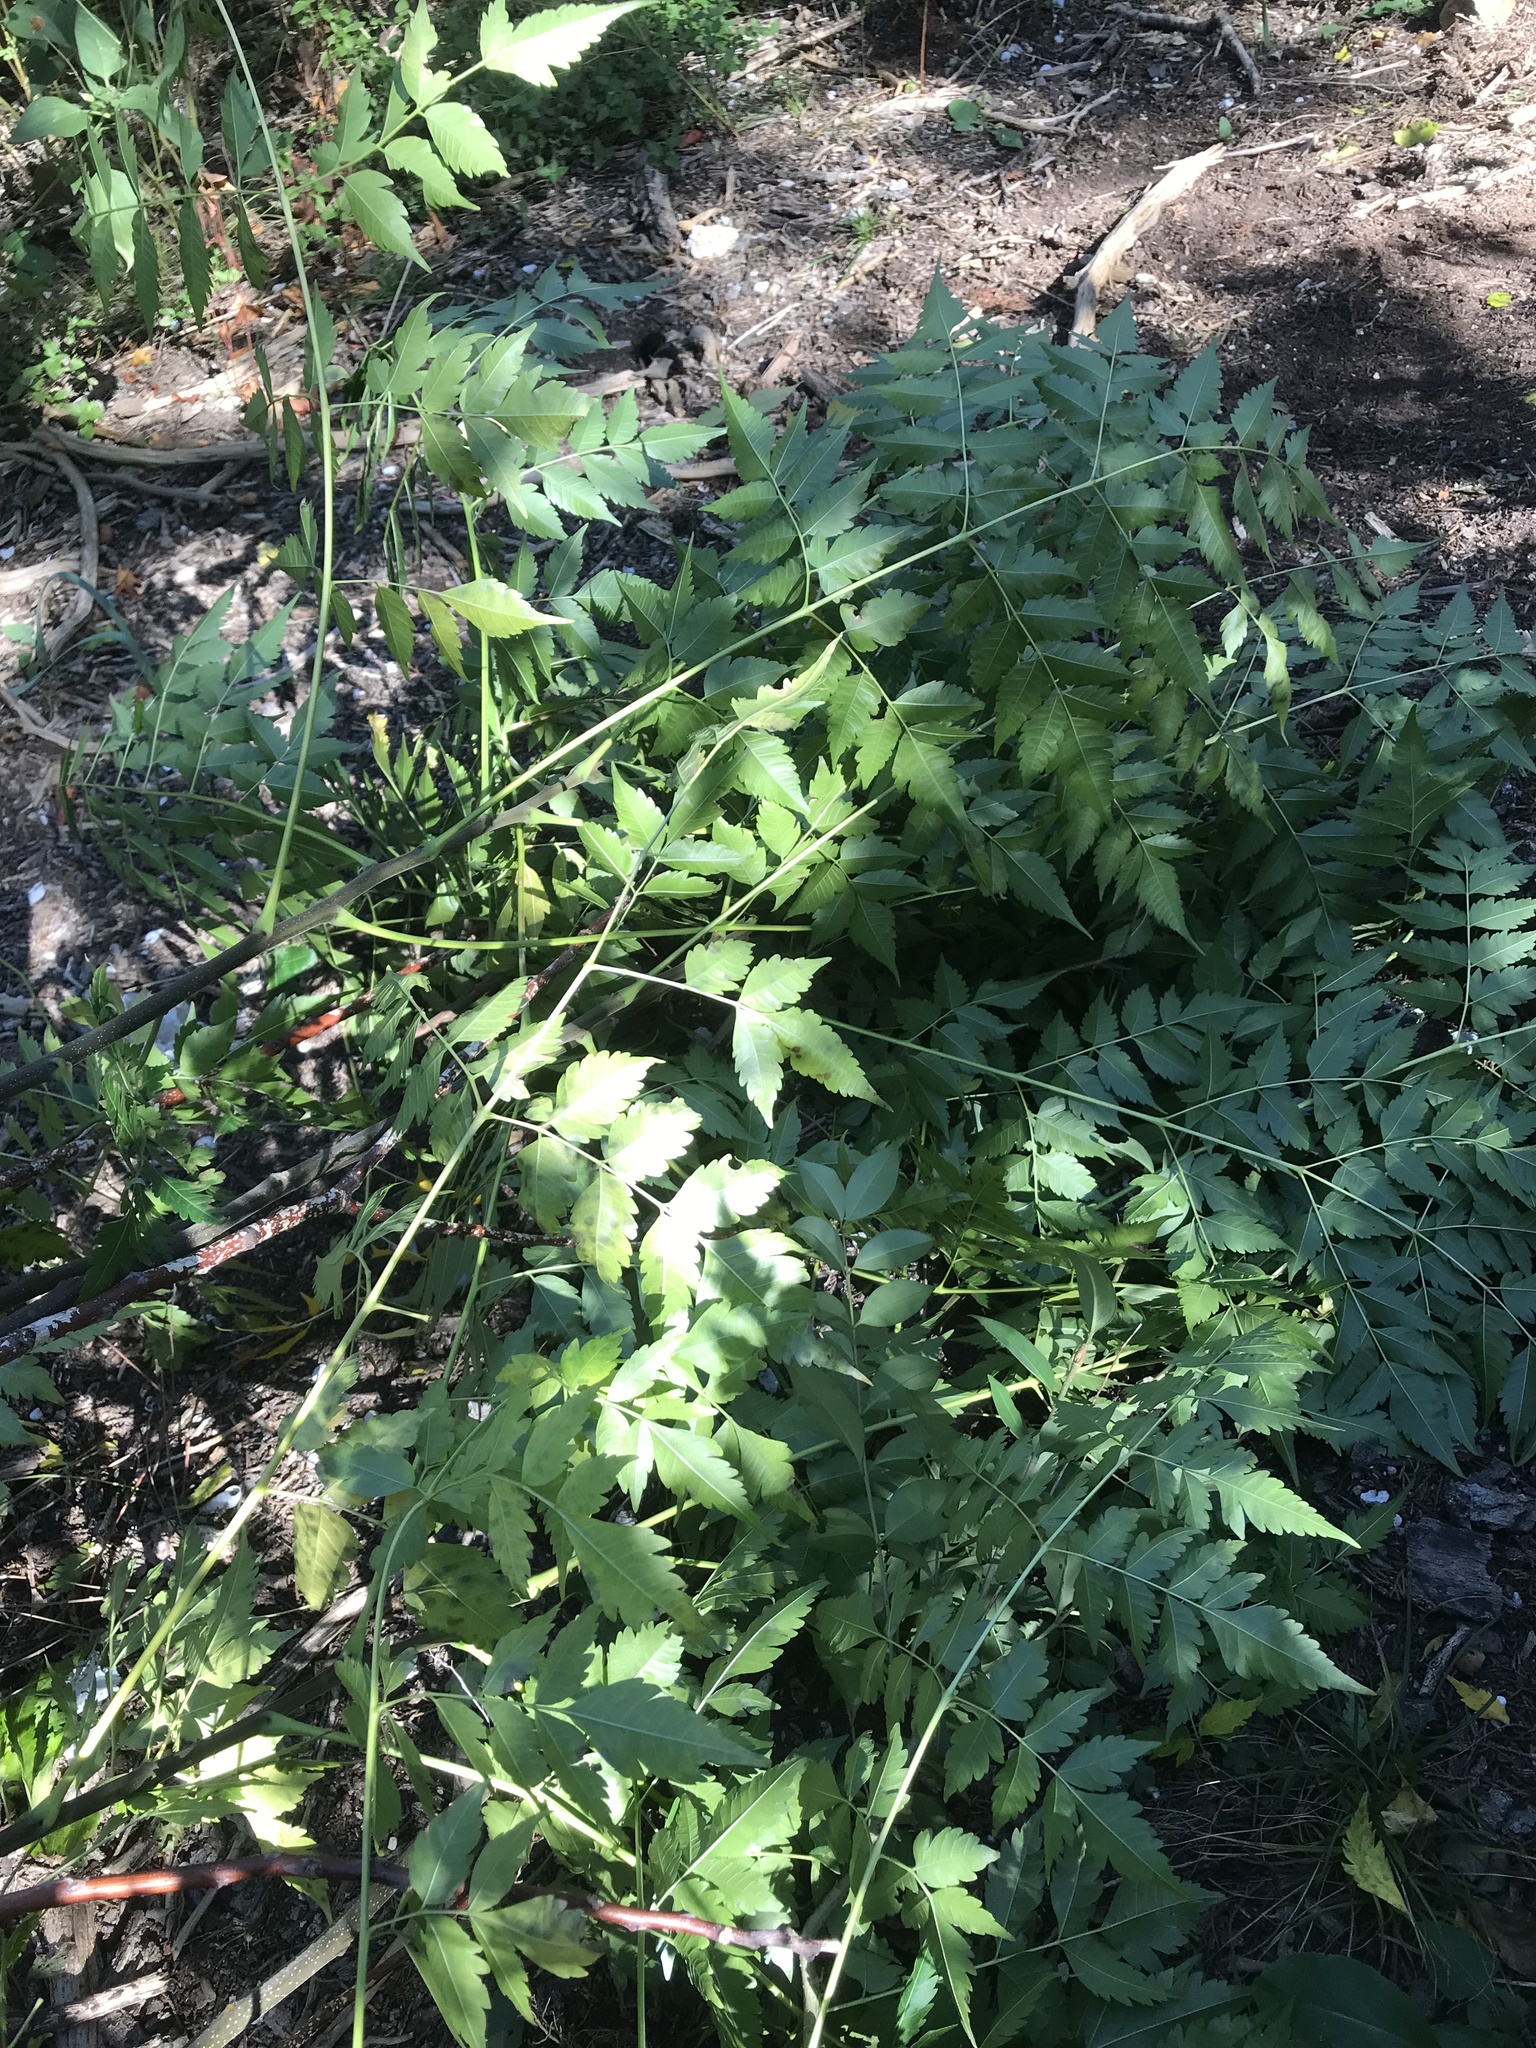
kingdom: Plantae
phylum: Tracheophyta
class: Magnoliopsida
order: Sapindales
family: Meliaceae
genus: Melia
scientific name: Melia azedarach
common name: Chinaberrytree
